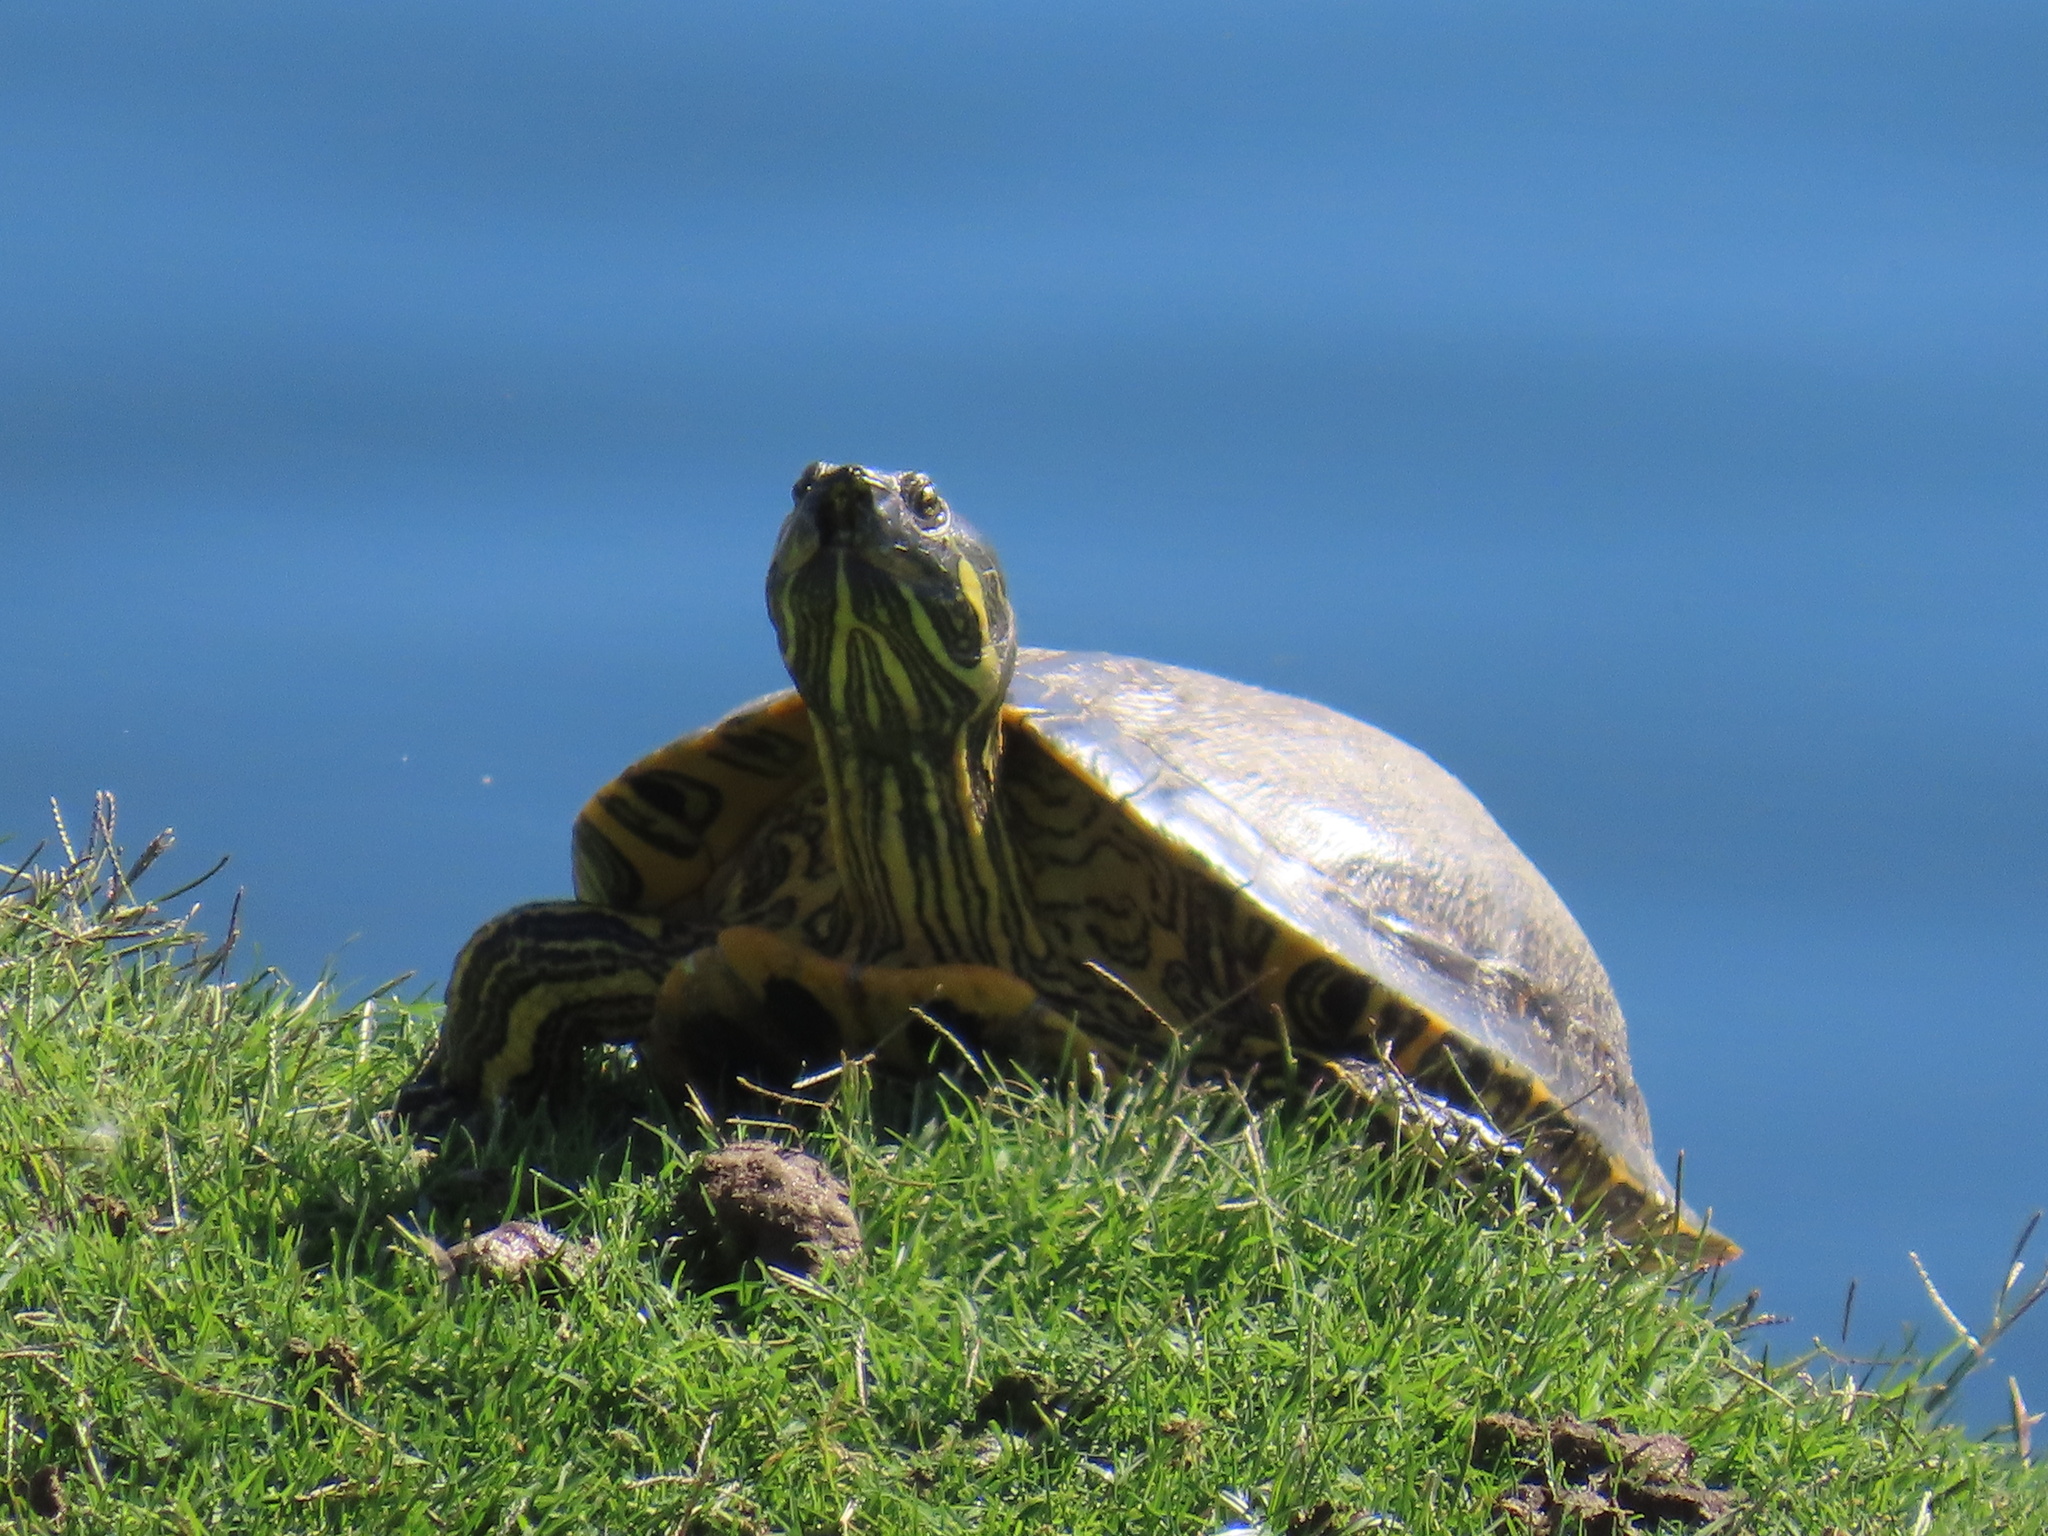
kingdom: Animalia
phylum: Chordata
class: Testudines
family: Emydidae
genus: Trachemys
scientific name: Trachemys scripta
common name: Slider
